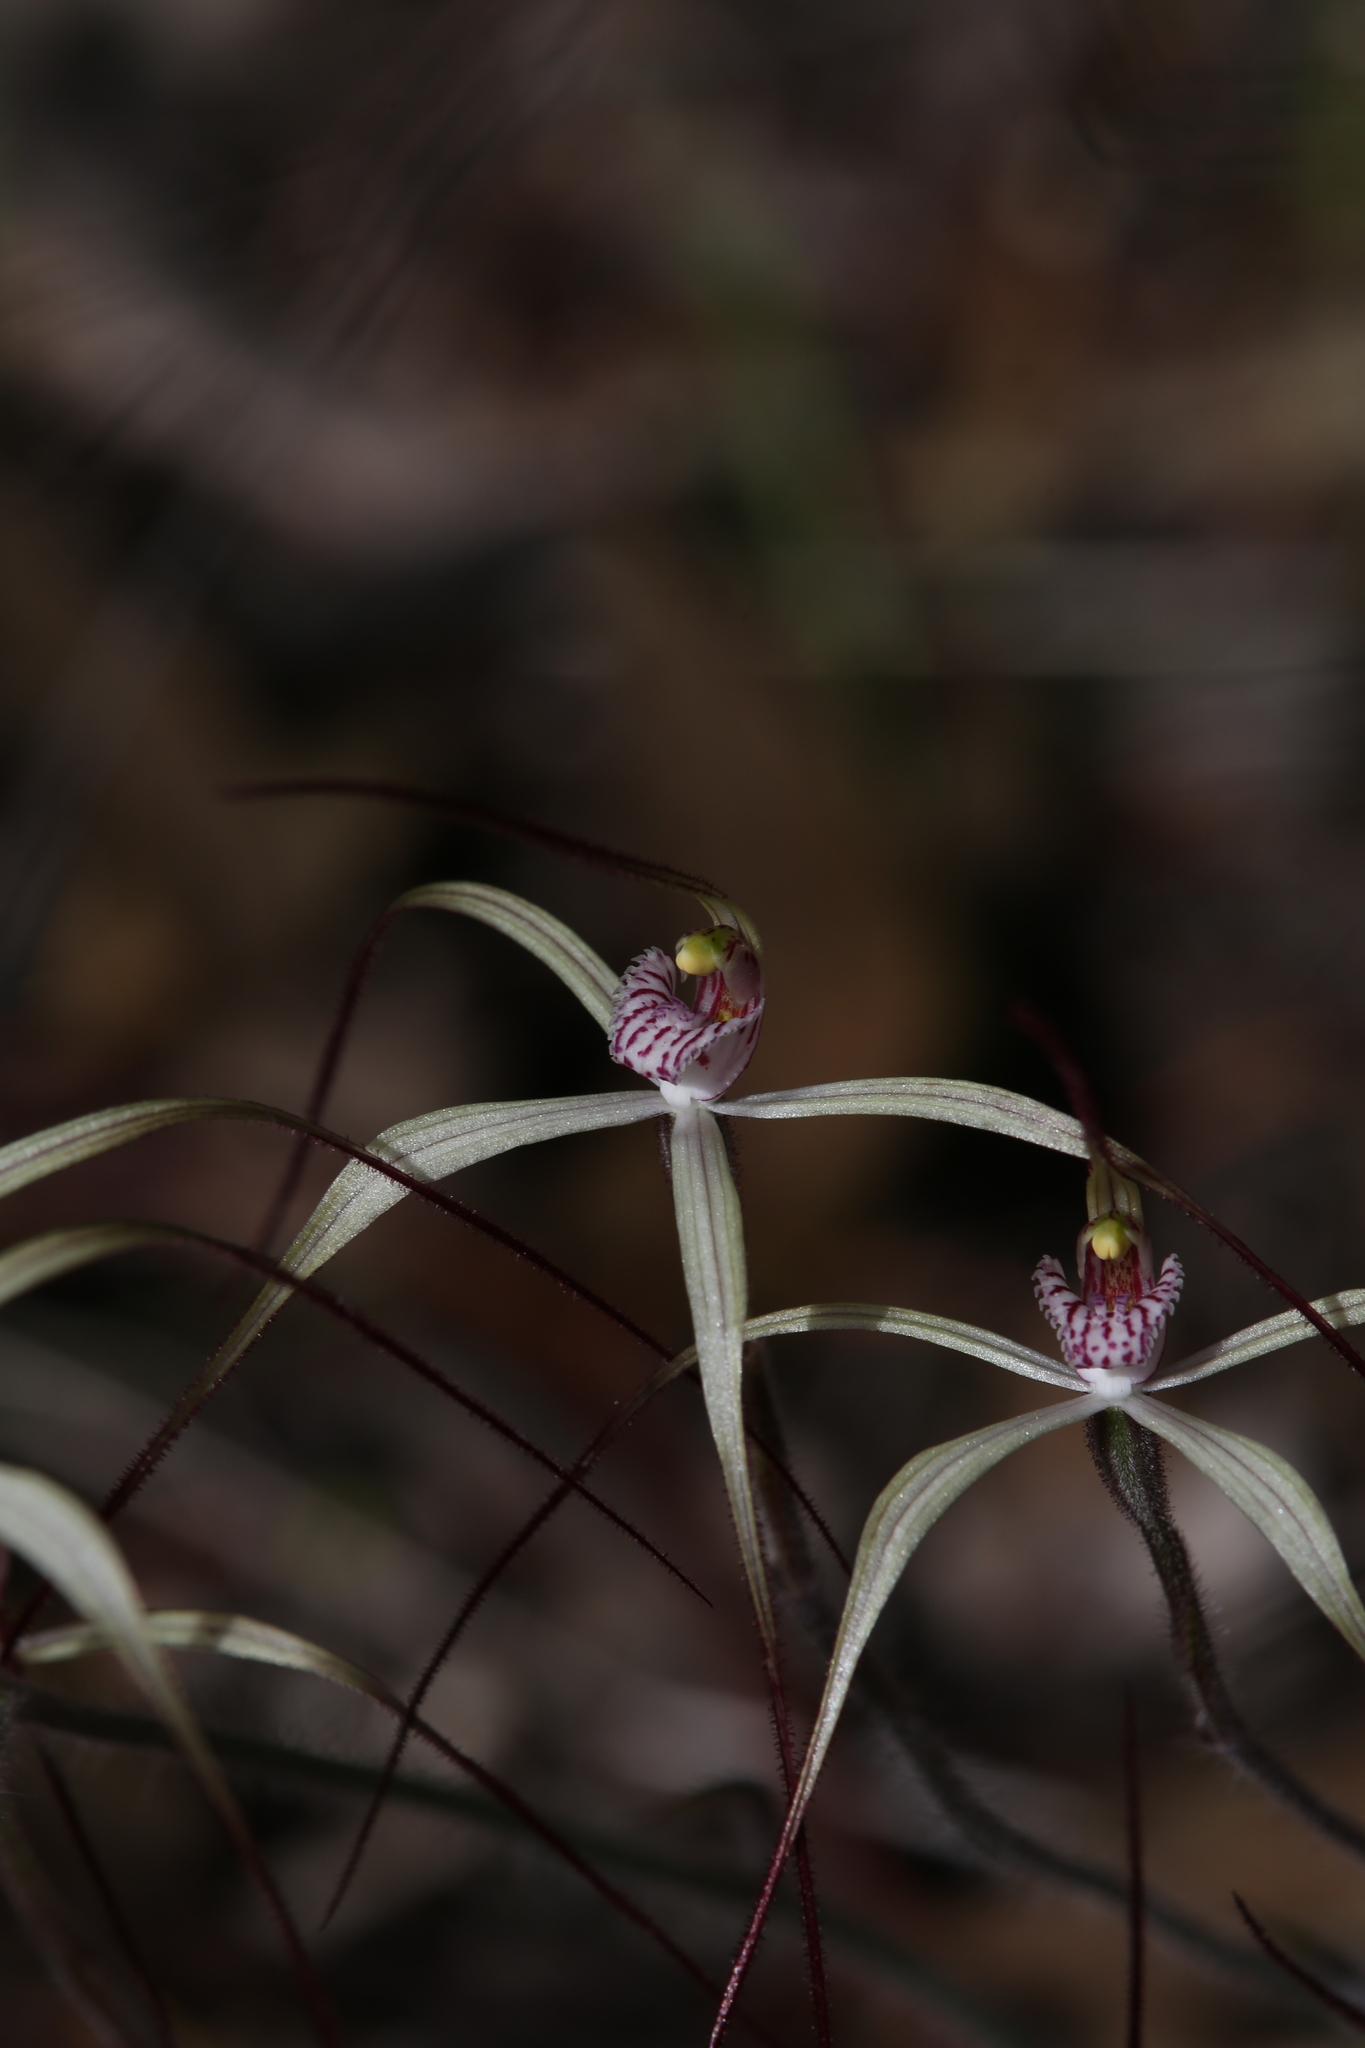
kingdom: Plantae
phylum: Tracheophyta
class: Liliopsida
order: Asparagales
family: Orchidaceae
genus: Caladenia
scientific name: Caladenia fluvialis
